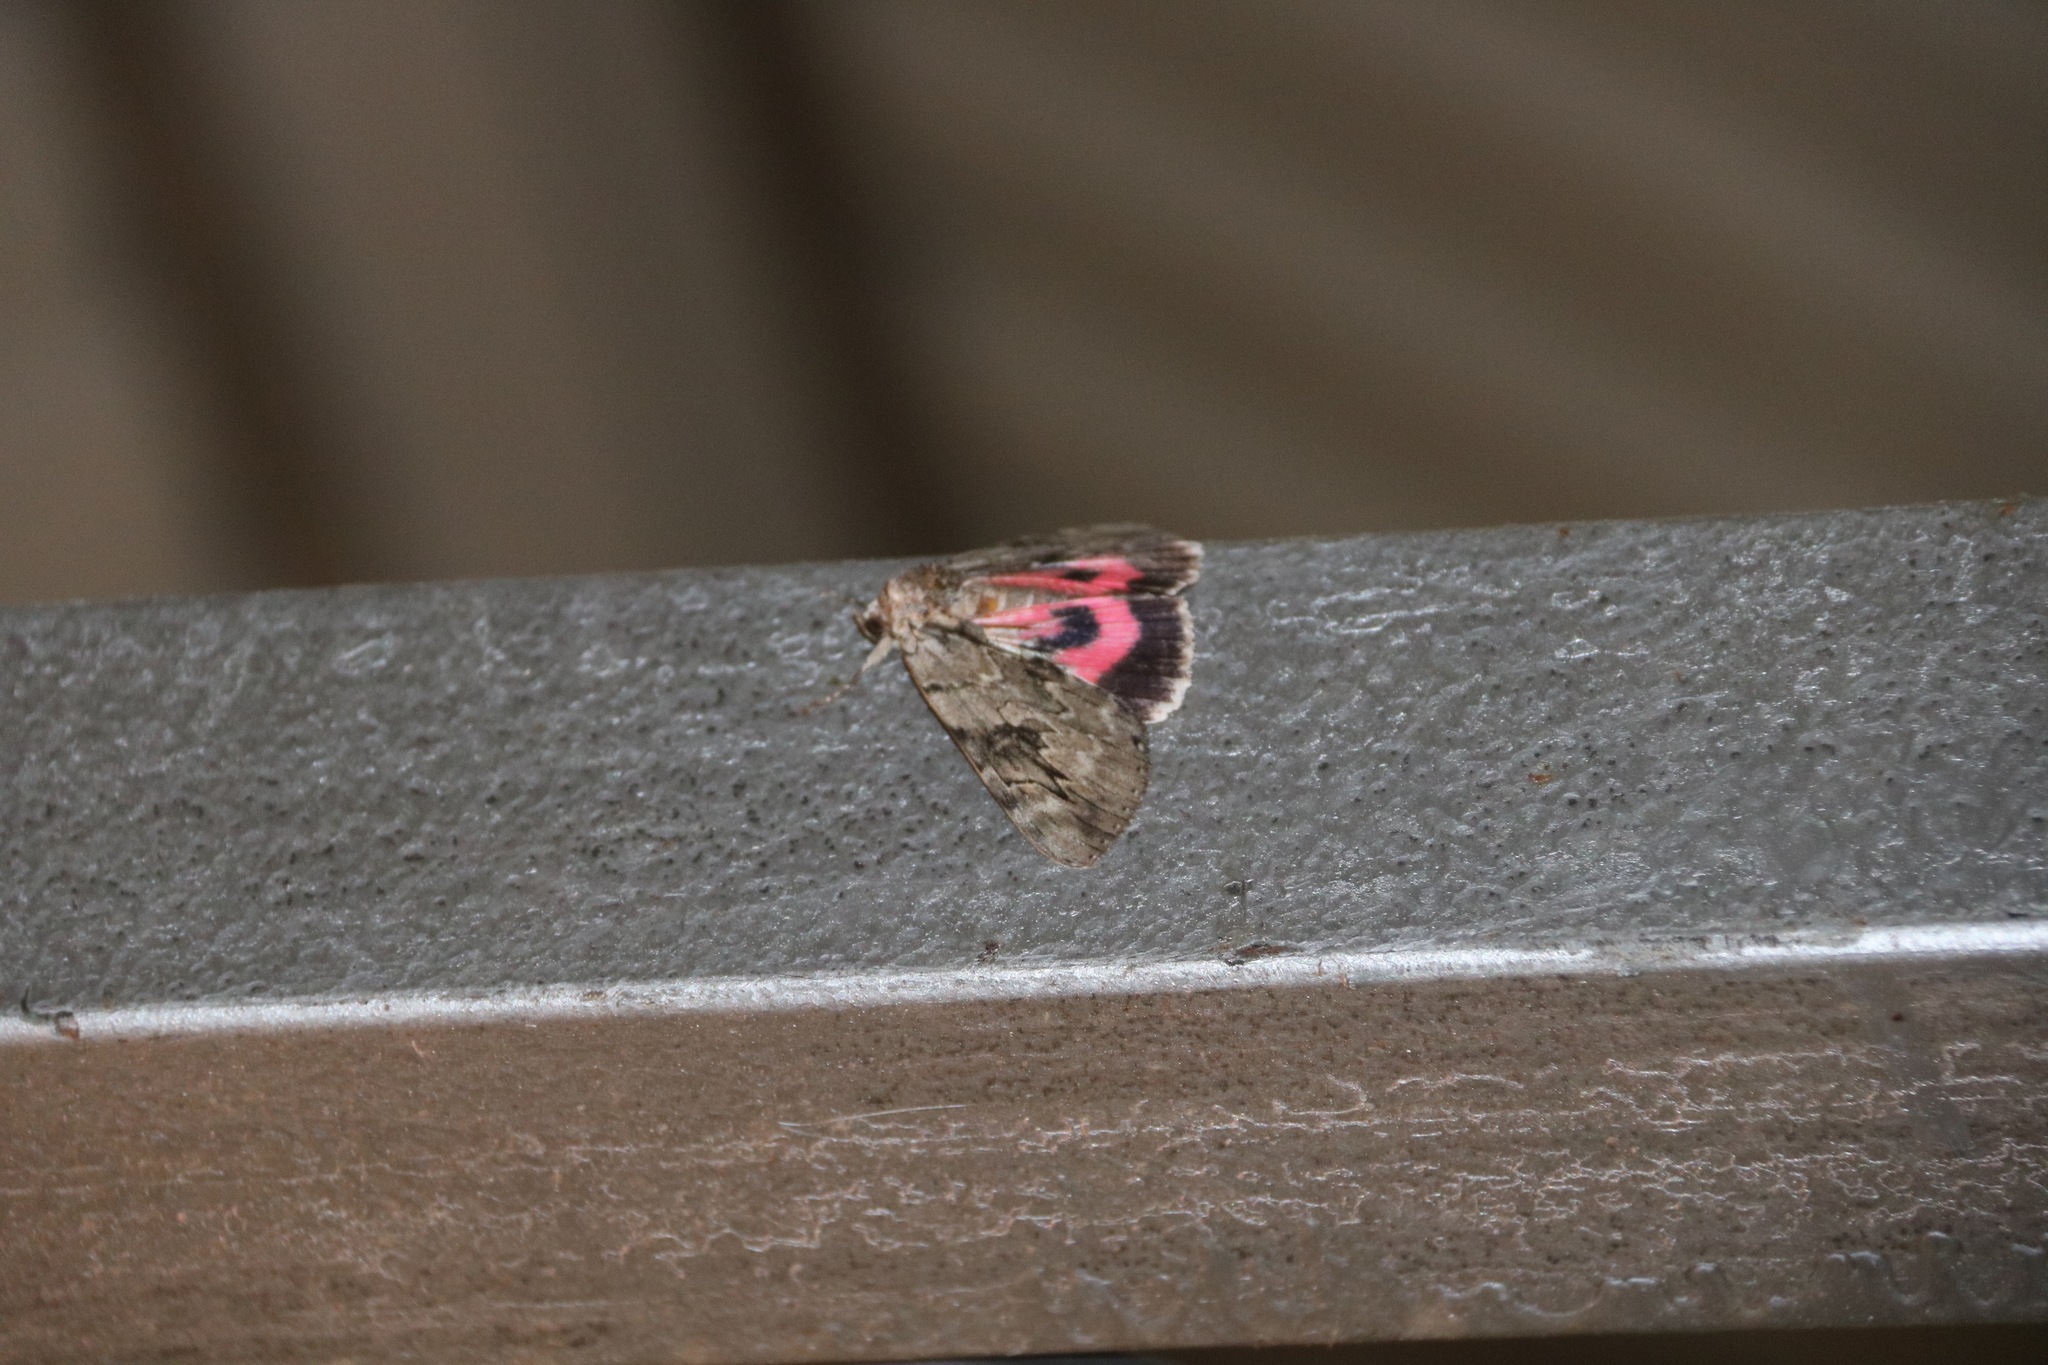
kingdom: Animalia
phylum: Arthropoda
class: Insecta
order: Lepidoptera
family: Erebidae
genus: Catocala
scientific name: Catocala electa
